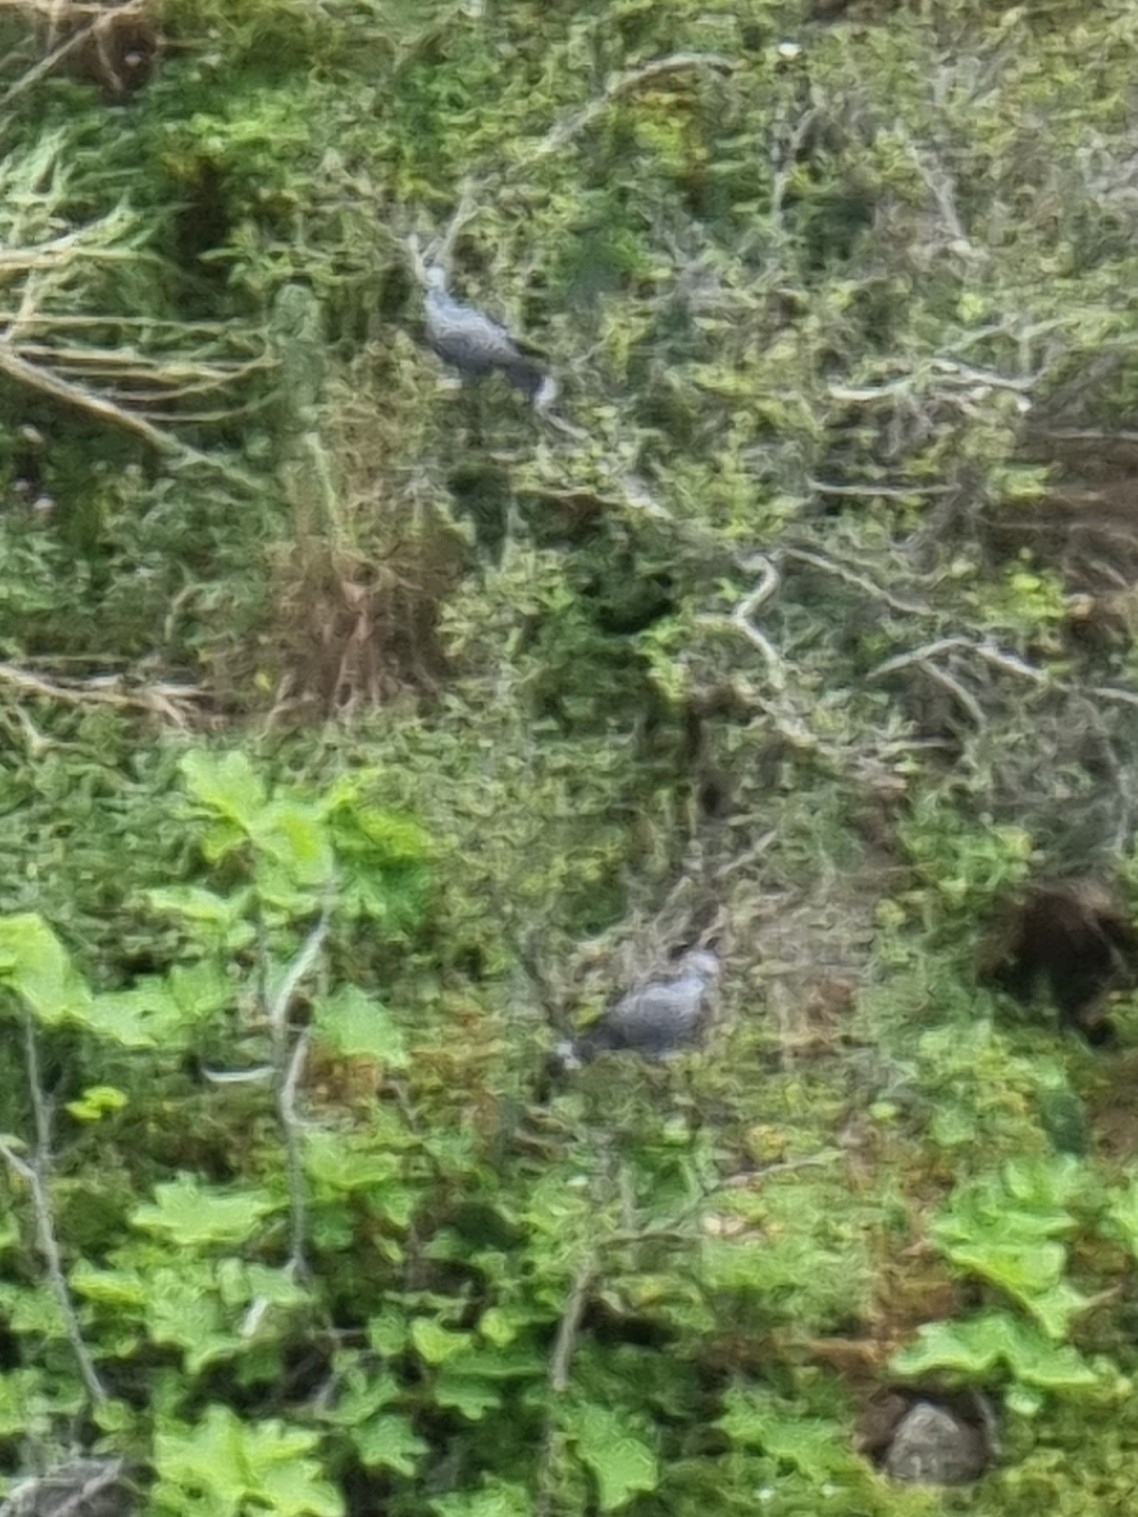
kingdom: Animalia
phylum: Chordata
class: Aves
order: Columbiformes
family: Columbidae
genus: Columba
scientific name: Columba trocaz
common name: Trocaz pigeon
